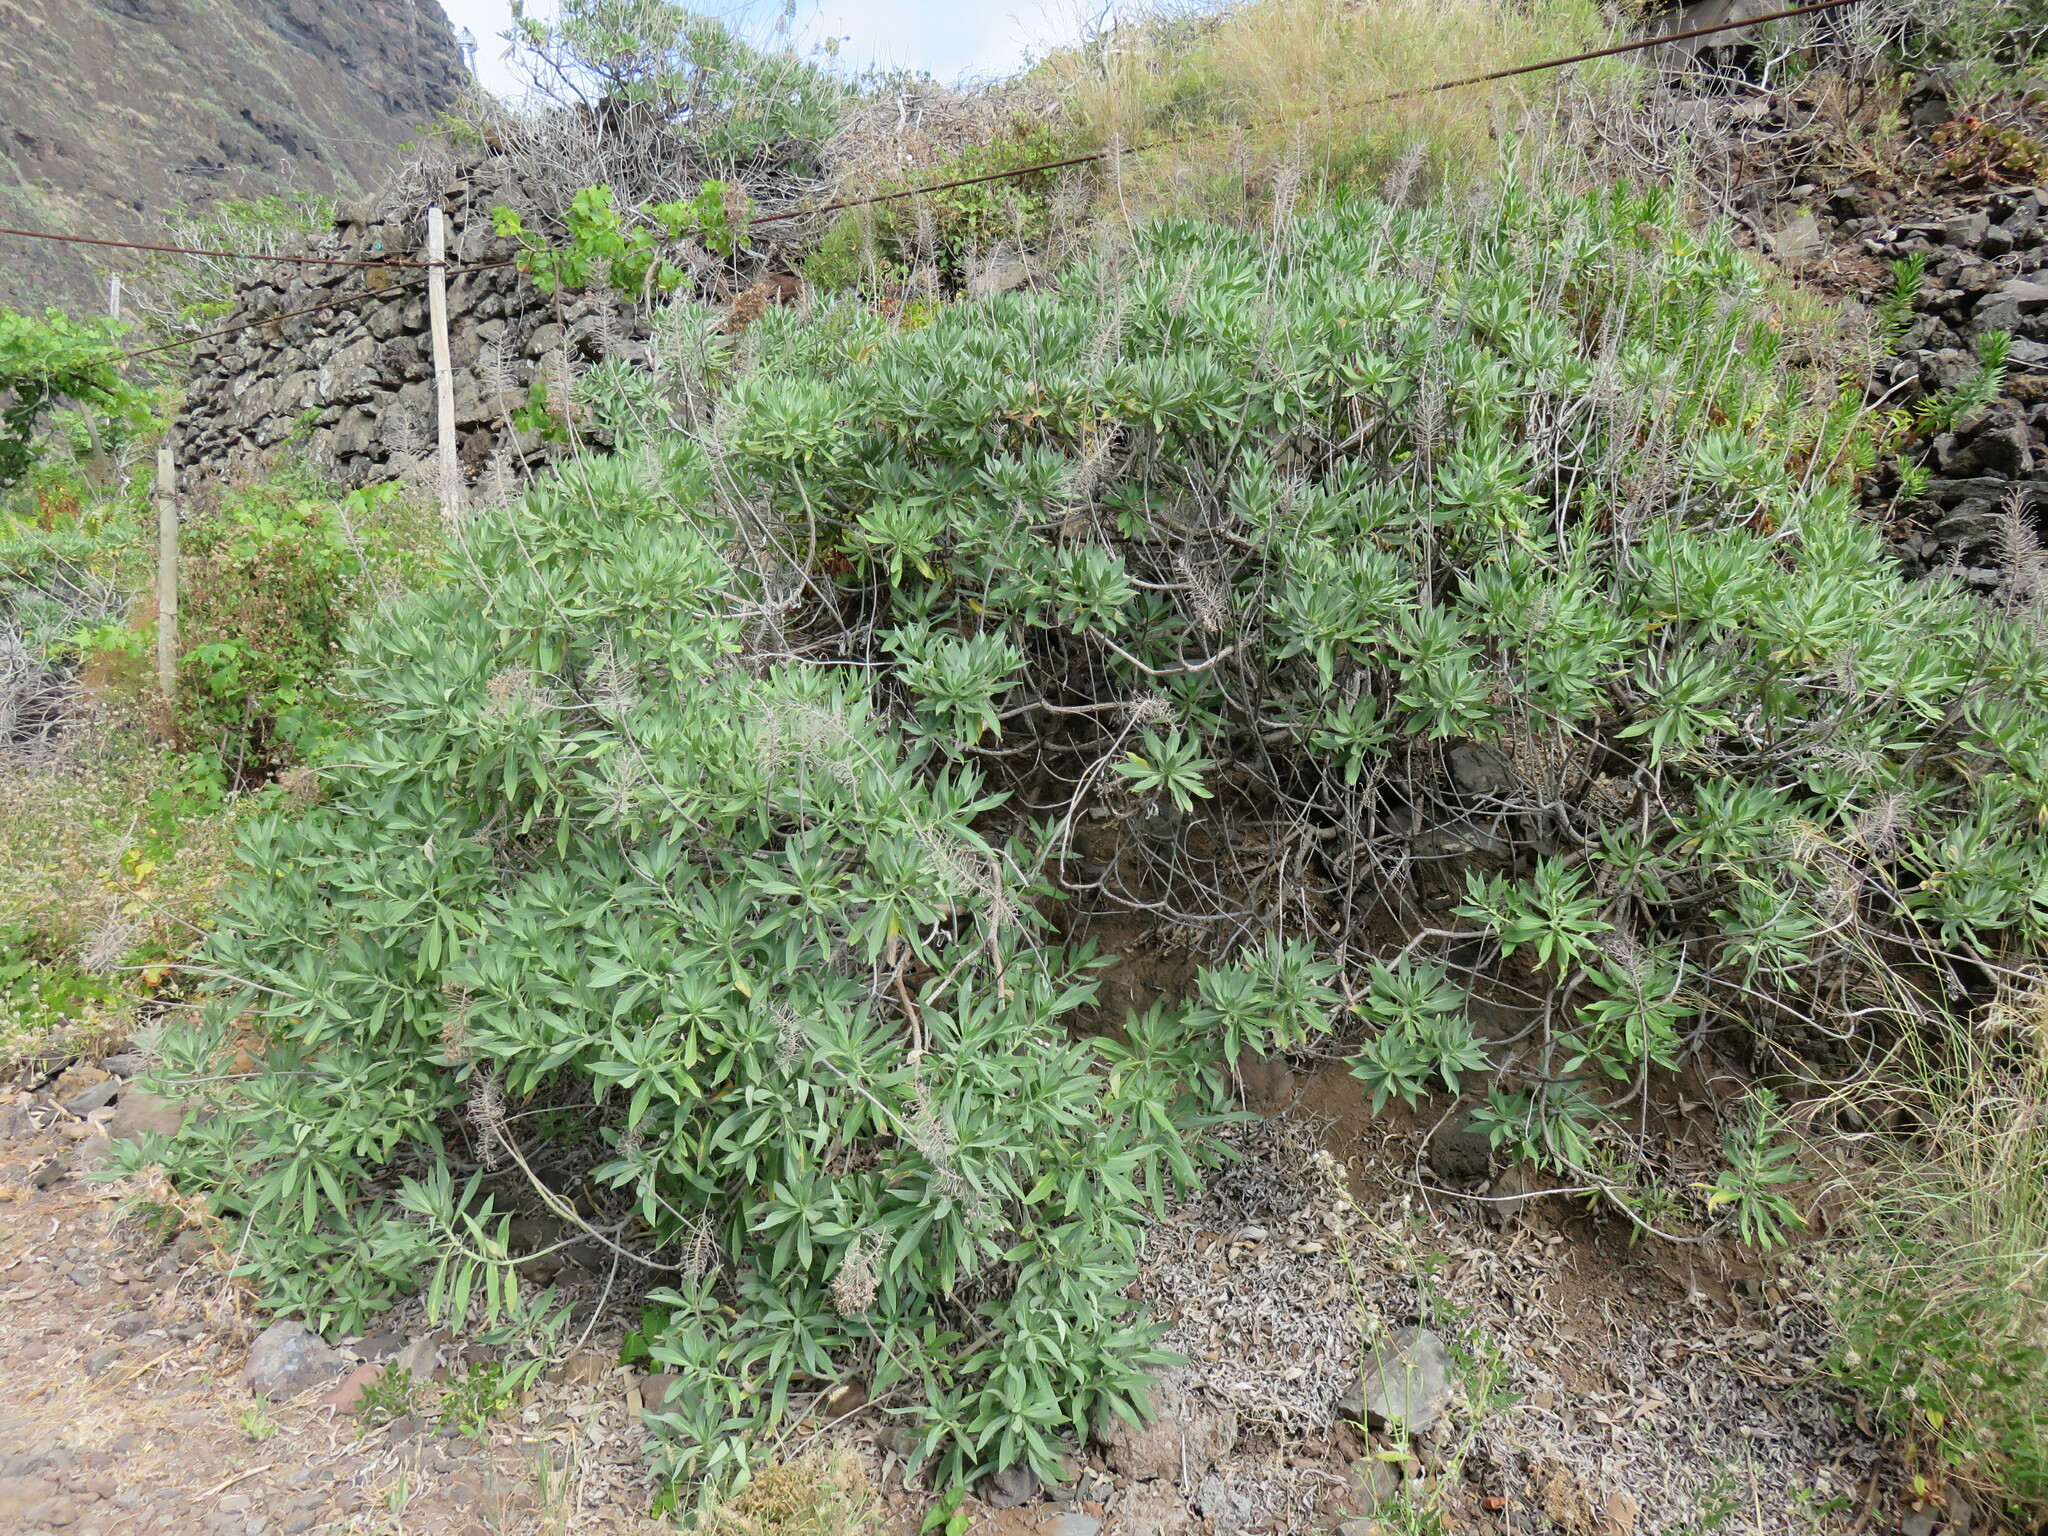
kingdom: Plantae
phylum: Tracheophyta
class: Magnoliopsida
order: Boraginales
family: Boraginaceae
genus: Echium
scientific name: Echium nervosum
